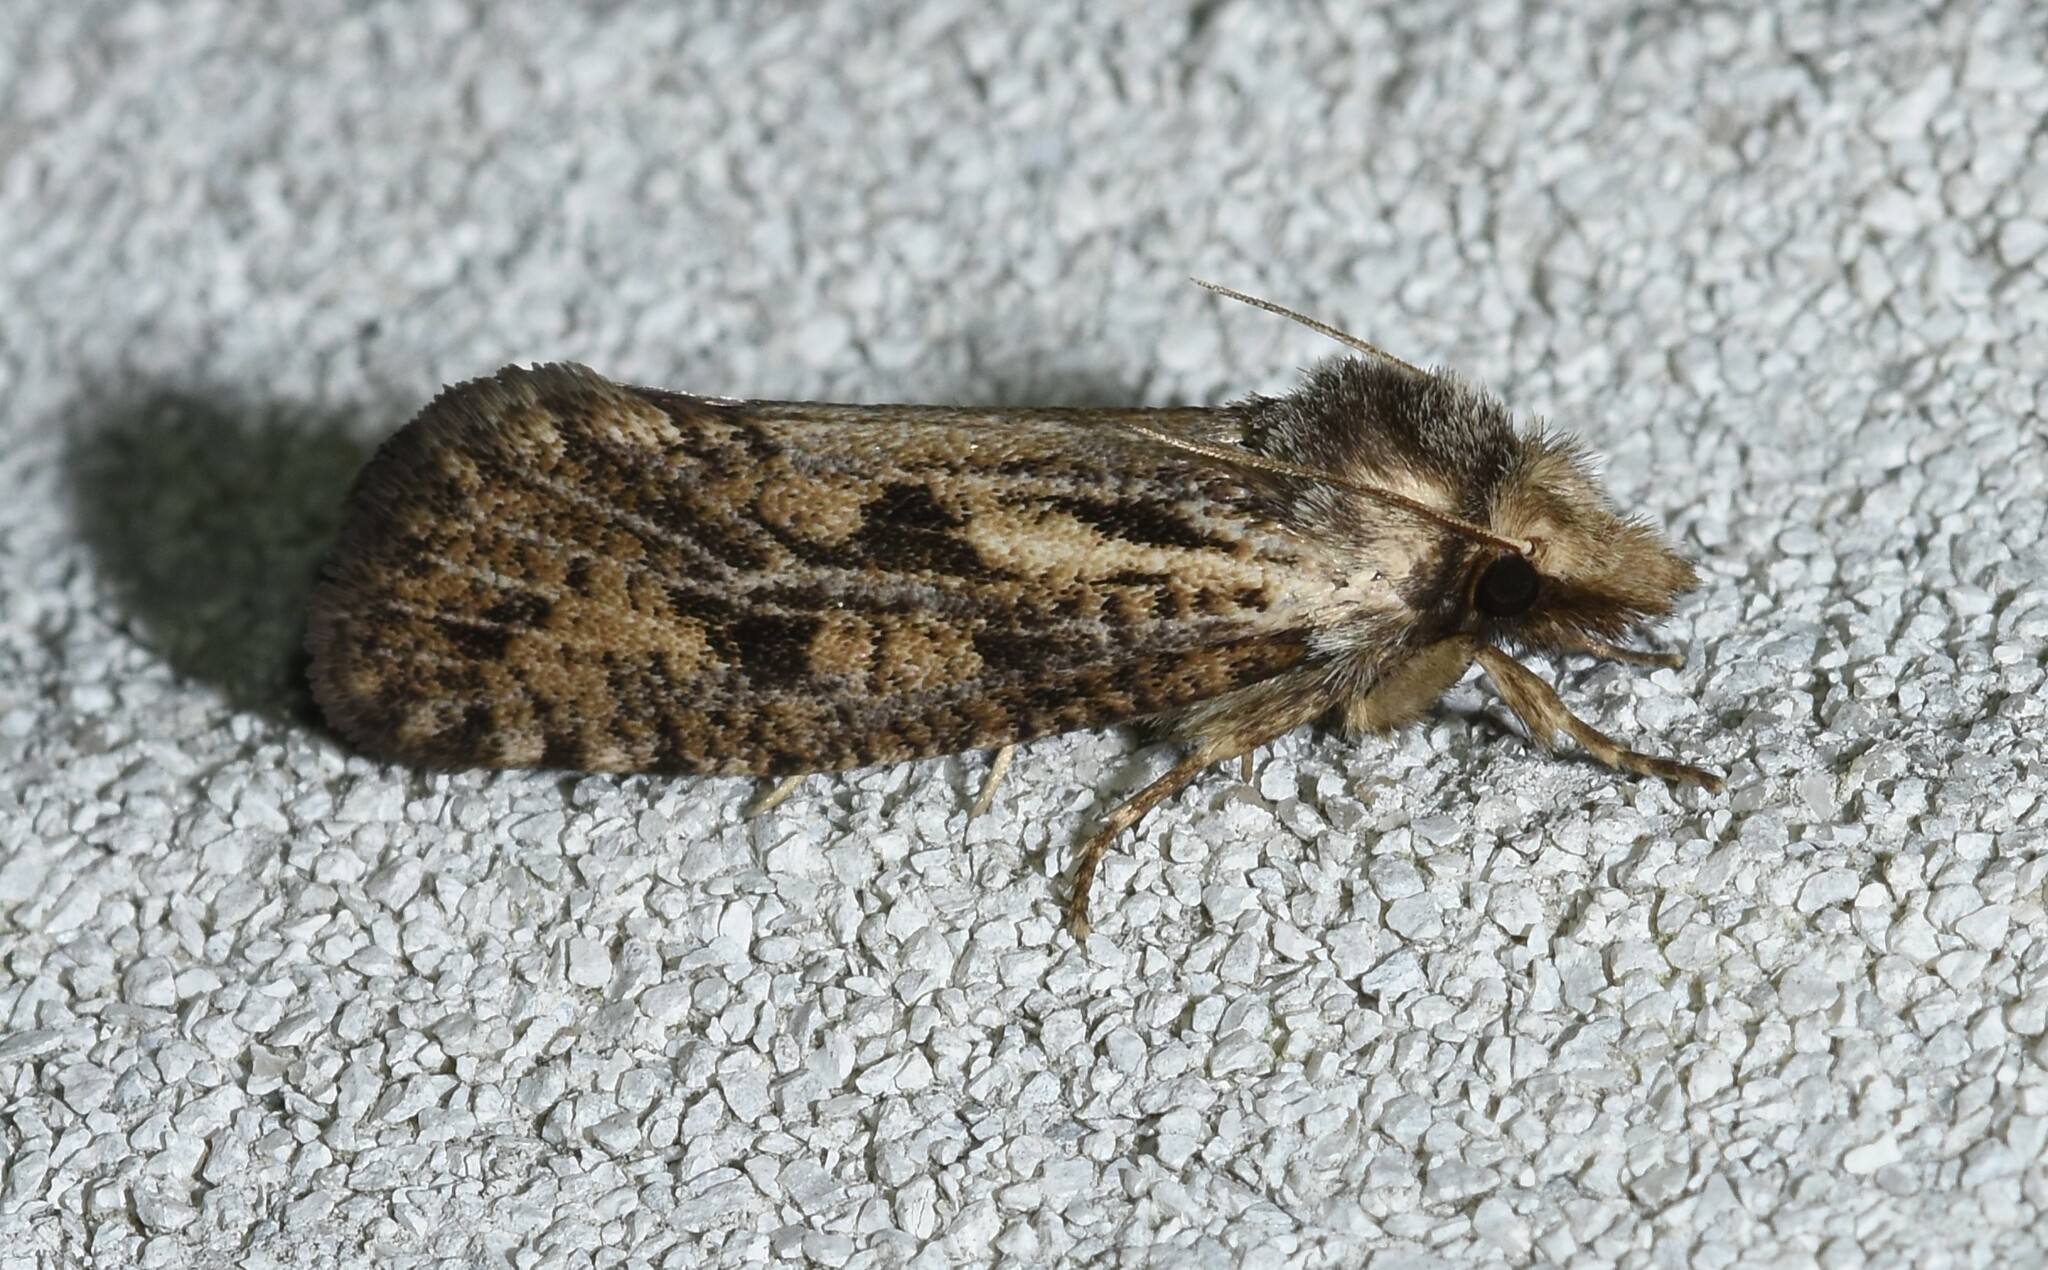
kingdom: Animalia
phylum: Arthropoda
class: Insecta
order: Lepidoptera
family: Tineidae
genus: Acrolophus
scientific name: Acrolophus popeanella
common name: Clemens' grass tubeworm moth
